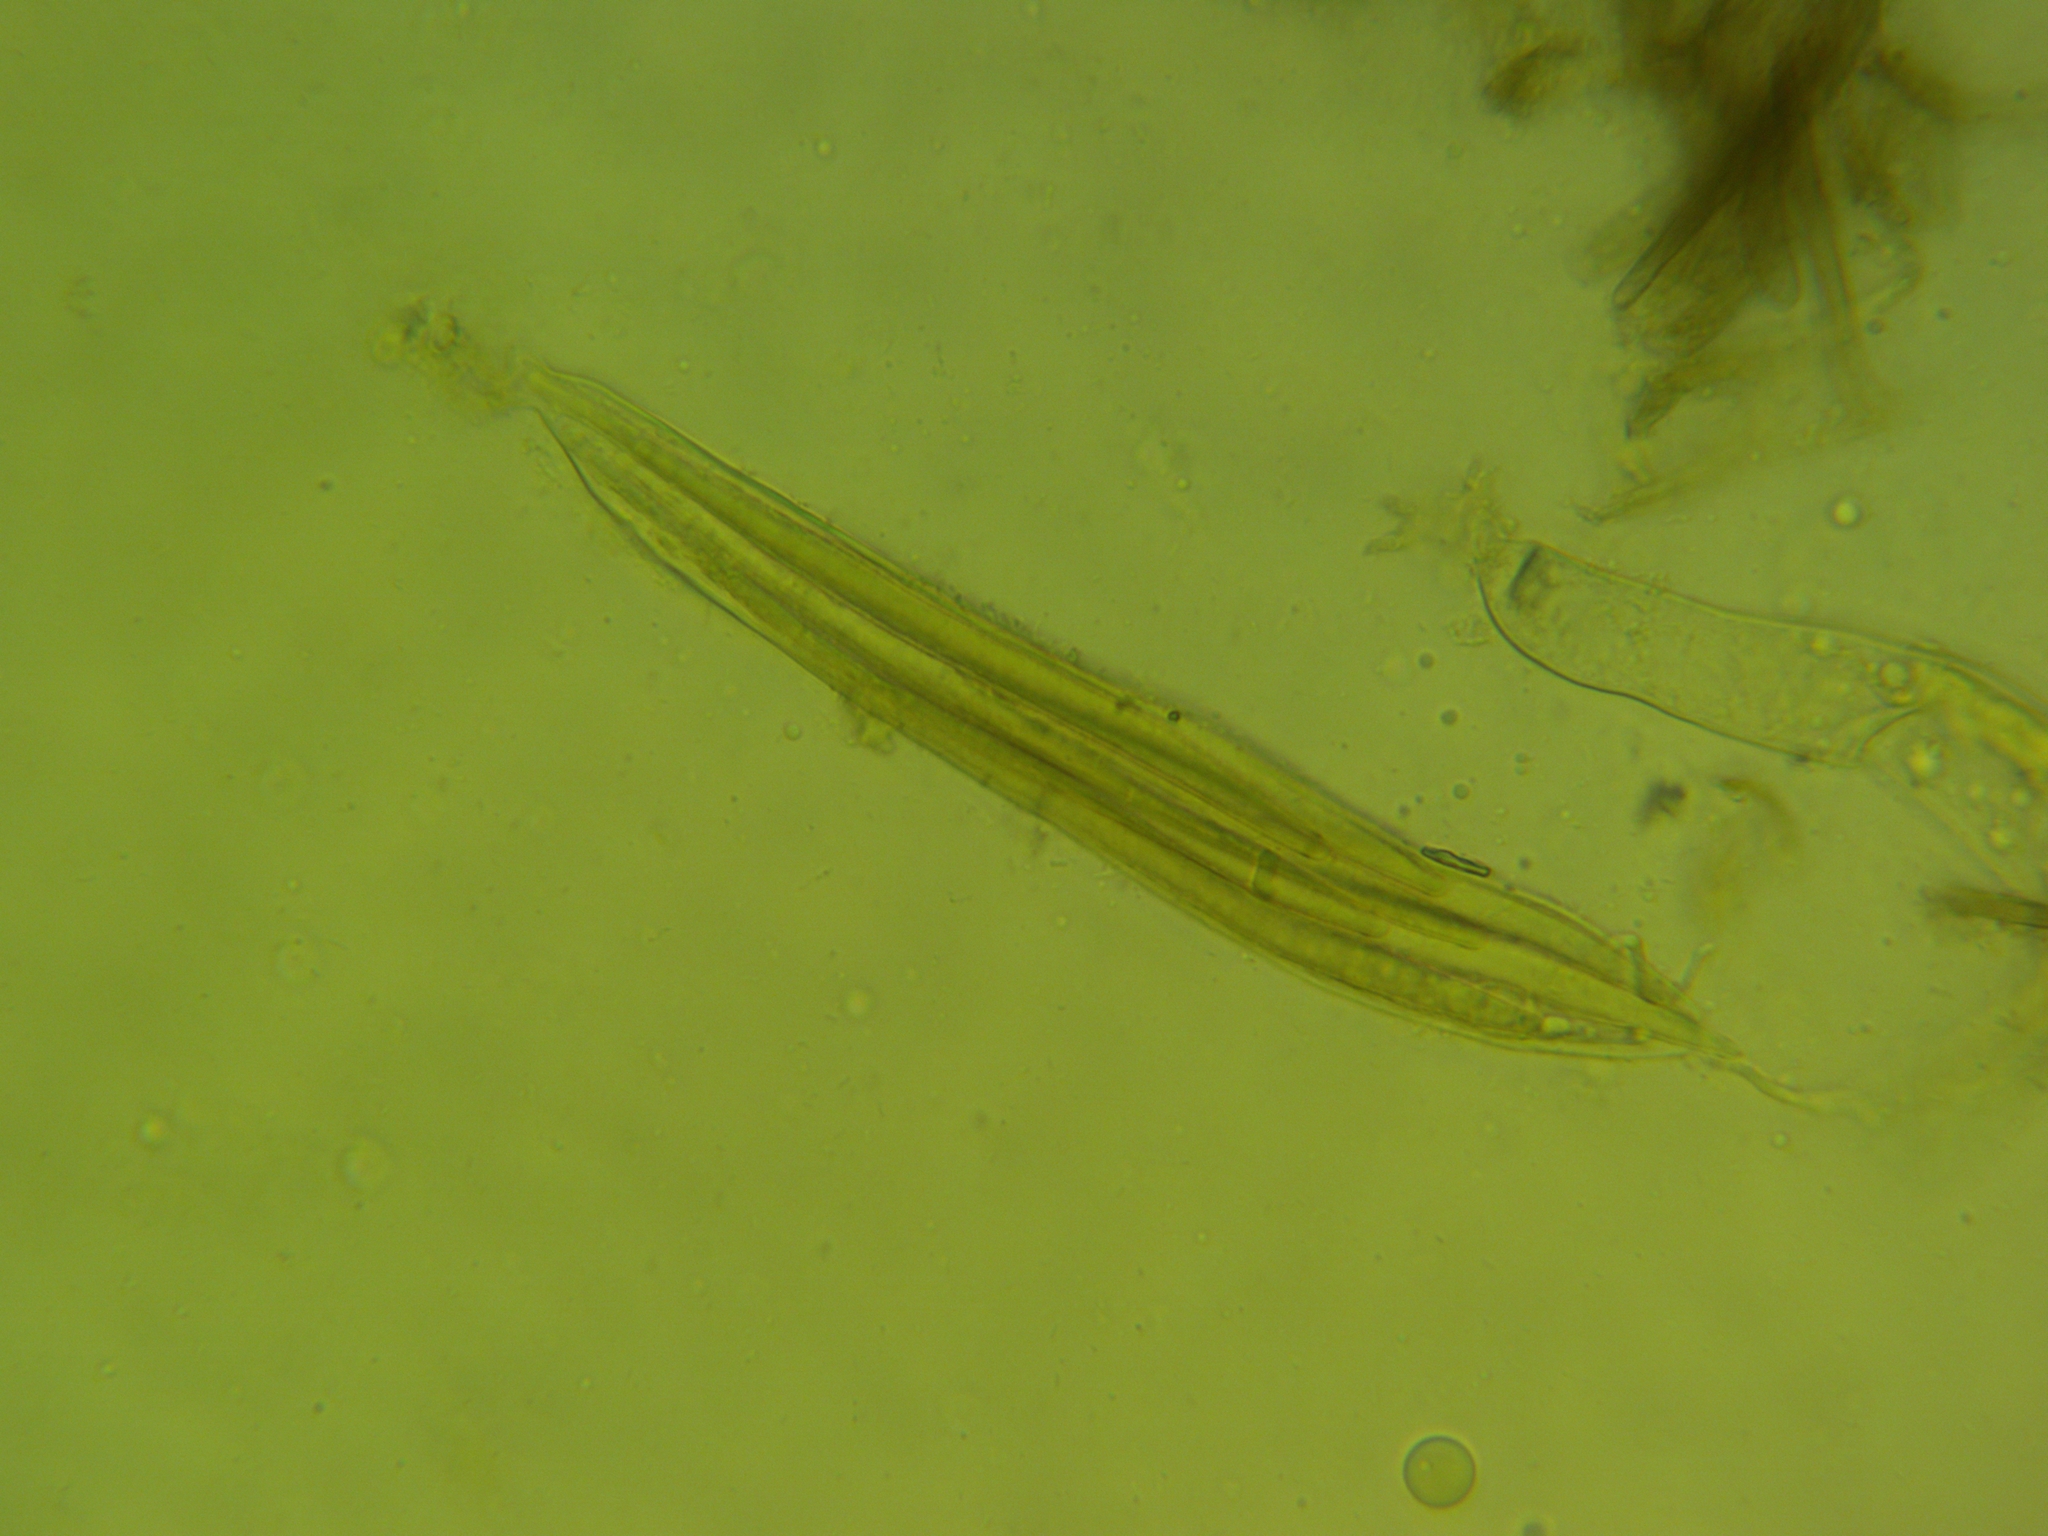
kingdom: Fungi
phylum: Ascomycota
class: Geoglossomycetes
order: Geoglossales
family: Geoglossaceae
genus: Trichoglossum
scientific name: Trichoglossum hirsutum
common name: Hairy earthtongue
